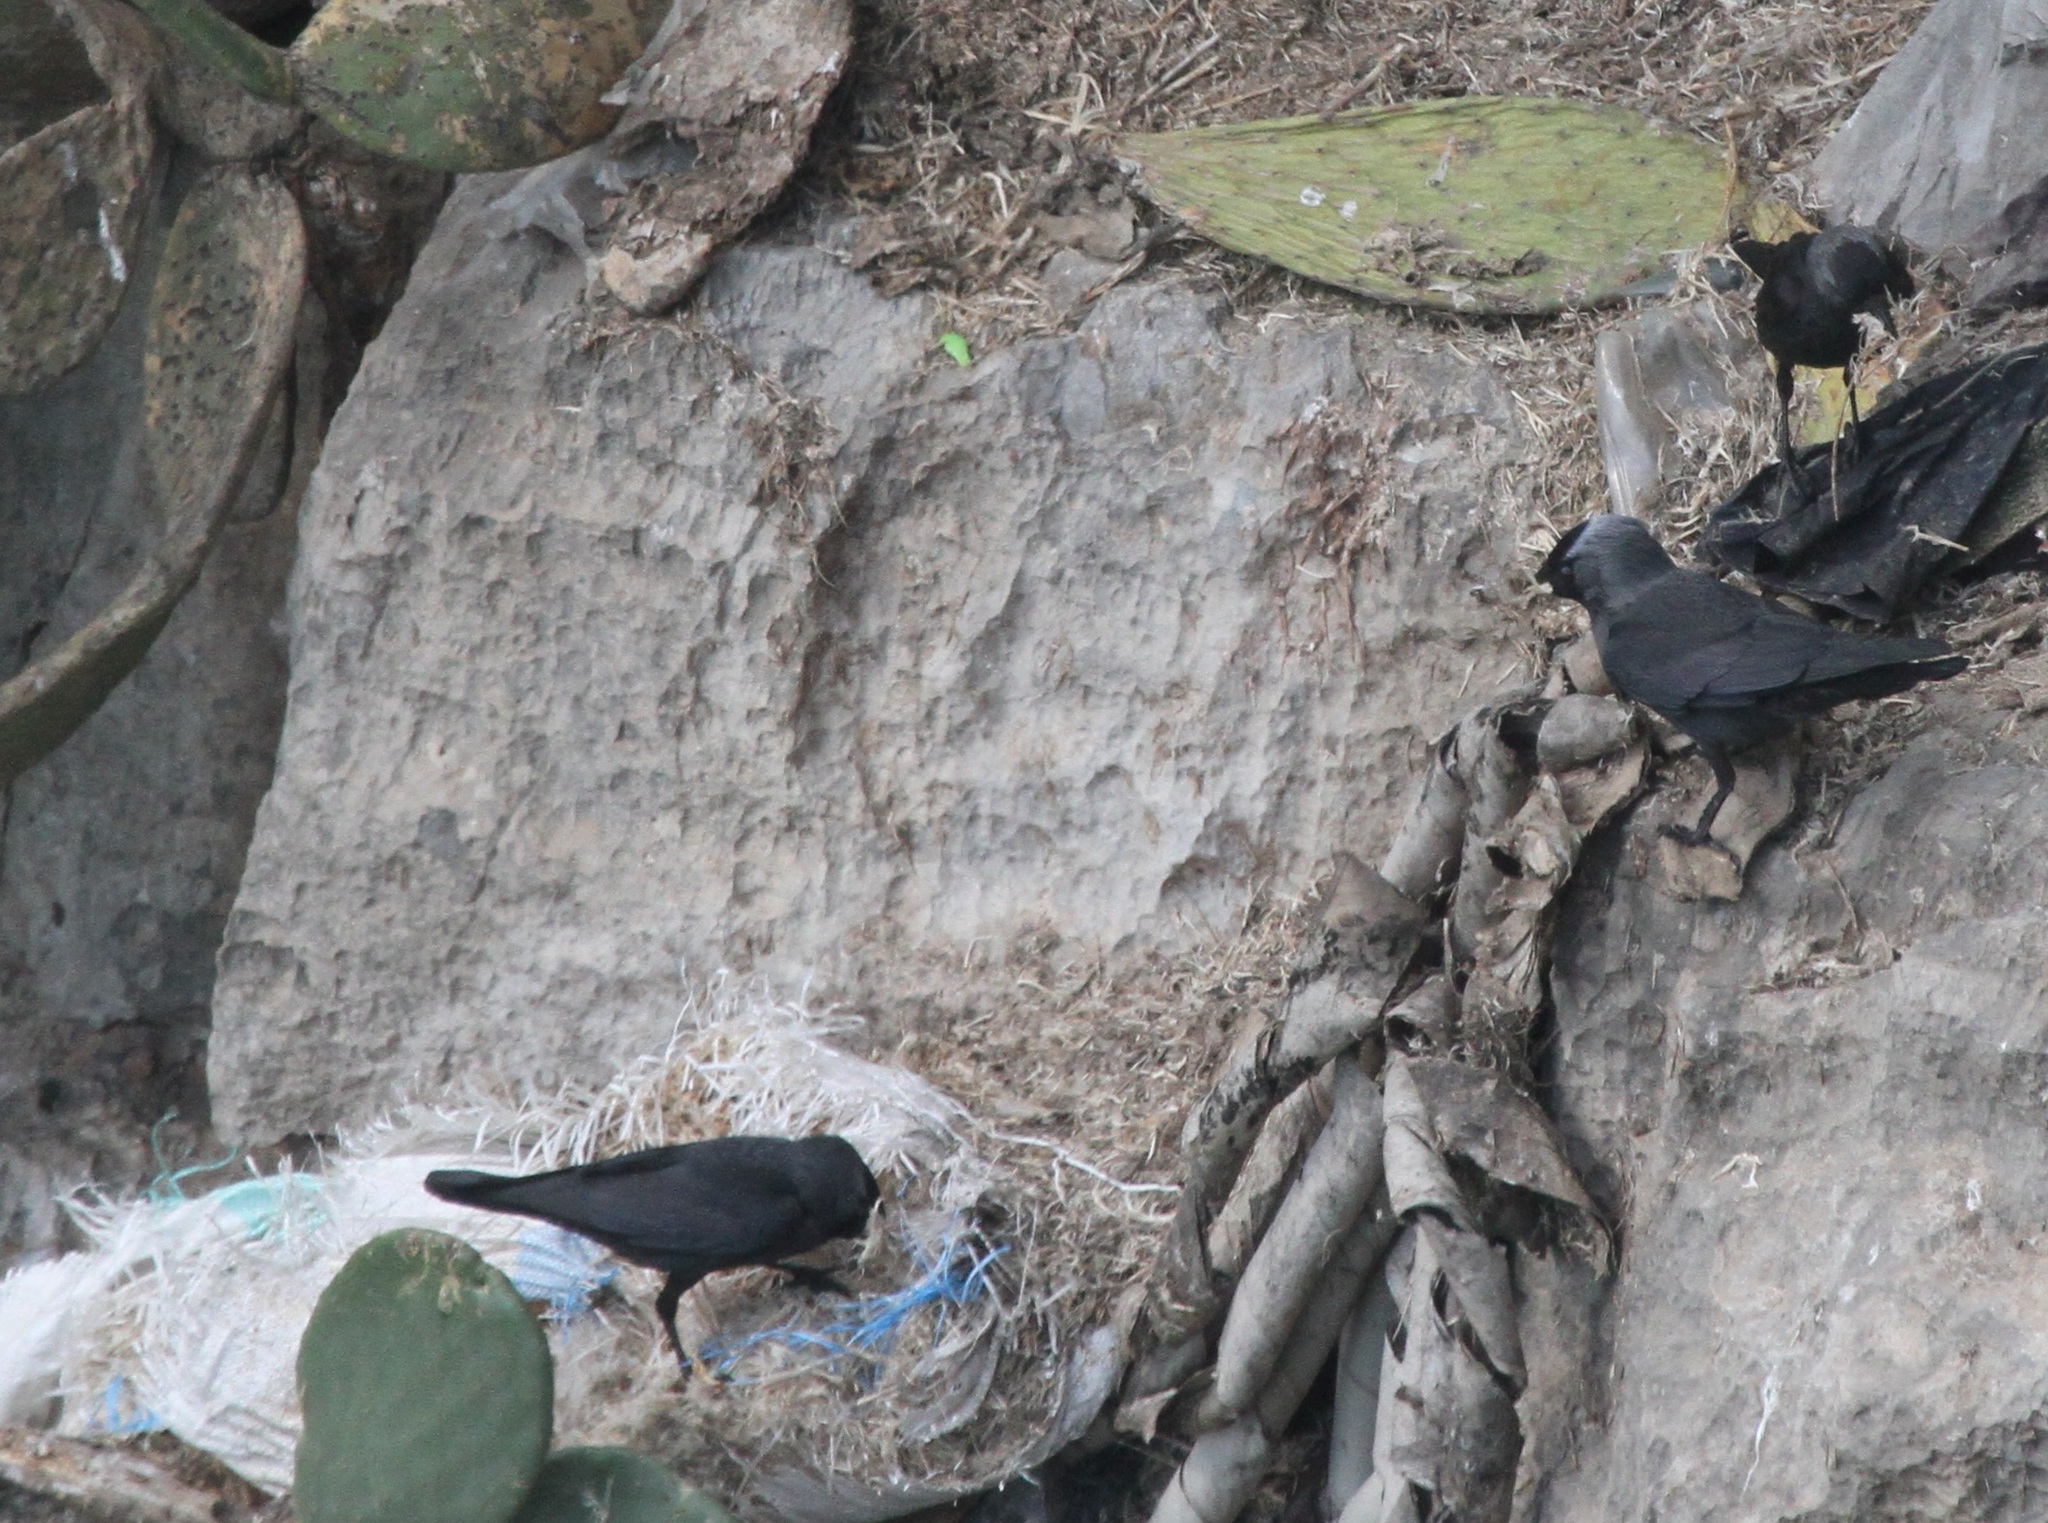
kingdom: Animalia
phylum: Chordata
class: Aves
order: Passeriformes
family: Corvidae
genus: Coloeus
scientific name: Coloeus monedula
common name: Western jackdaw
